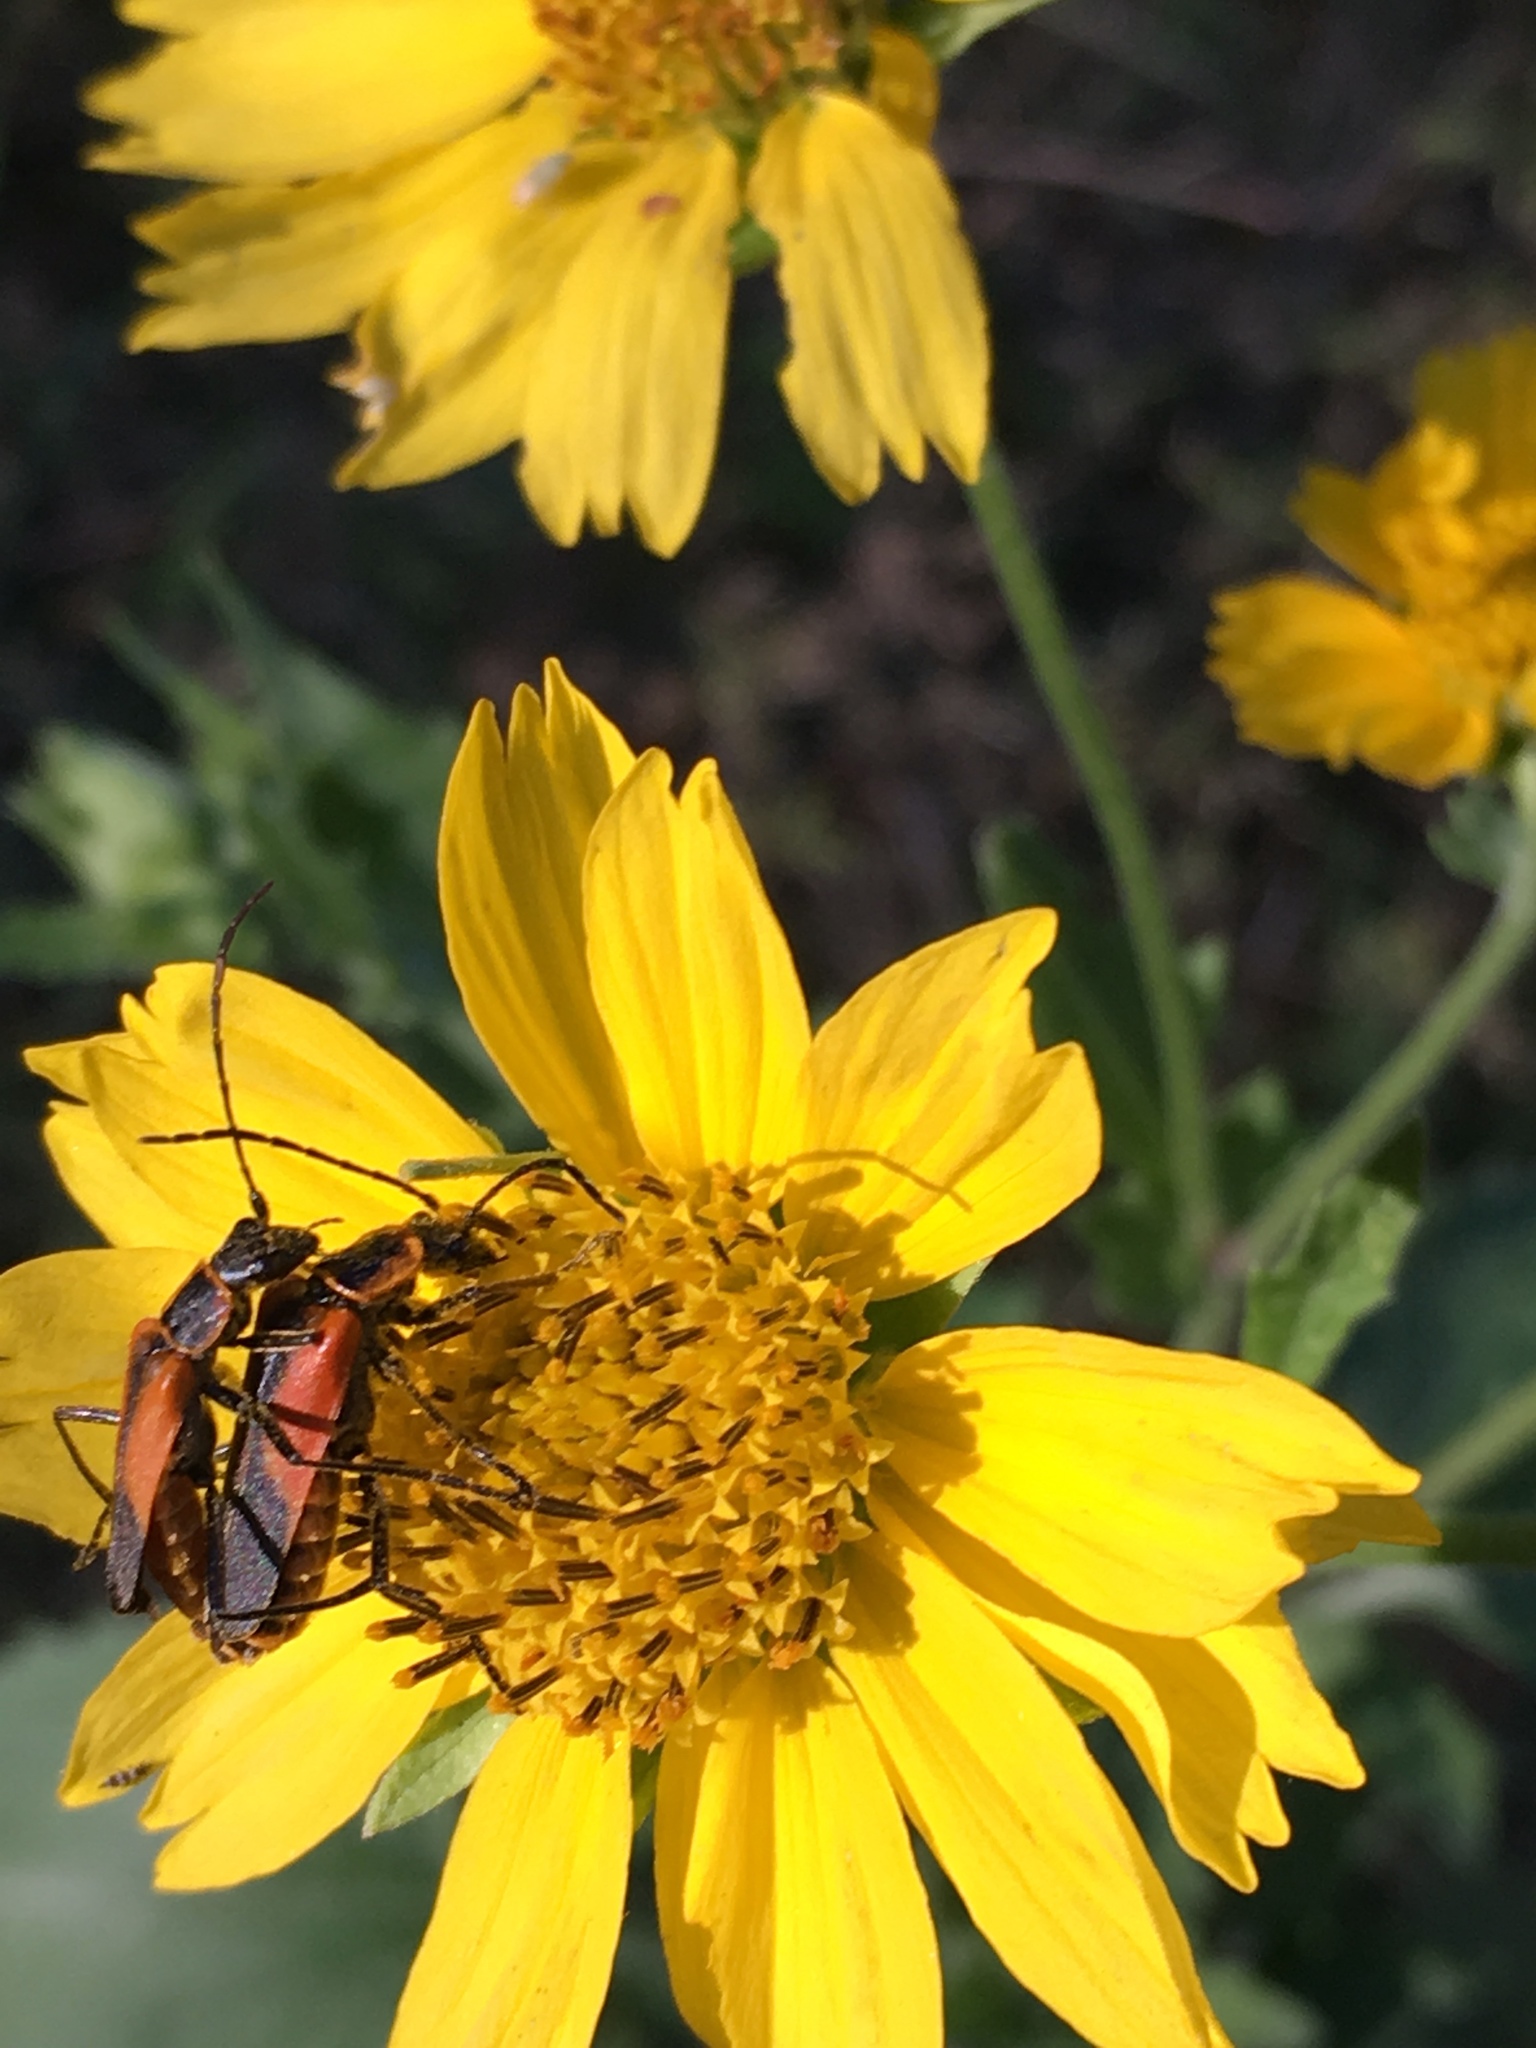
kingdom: Animalia
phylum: Arthropoda
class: Insecta
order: Coleoptera
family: Cantharidae
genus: Chauliognathus
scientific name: Chauliognathus limbicollis
